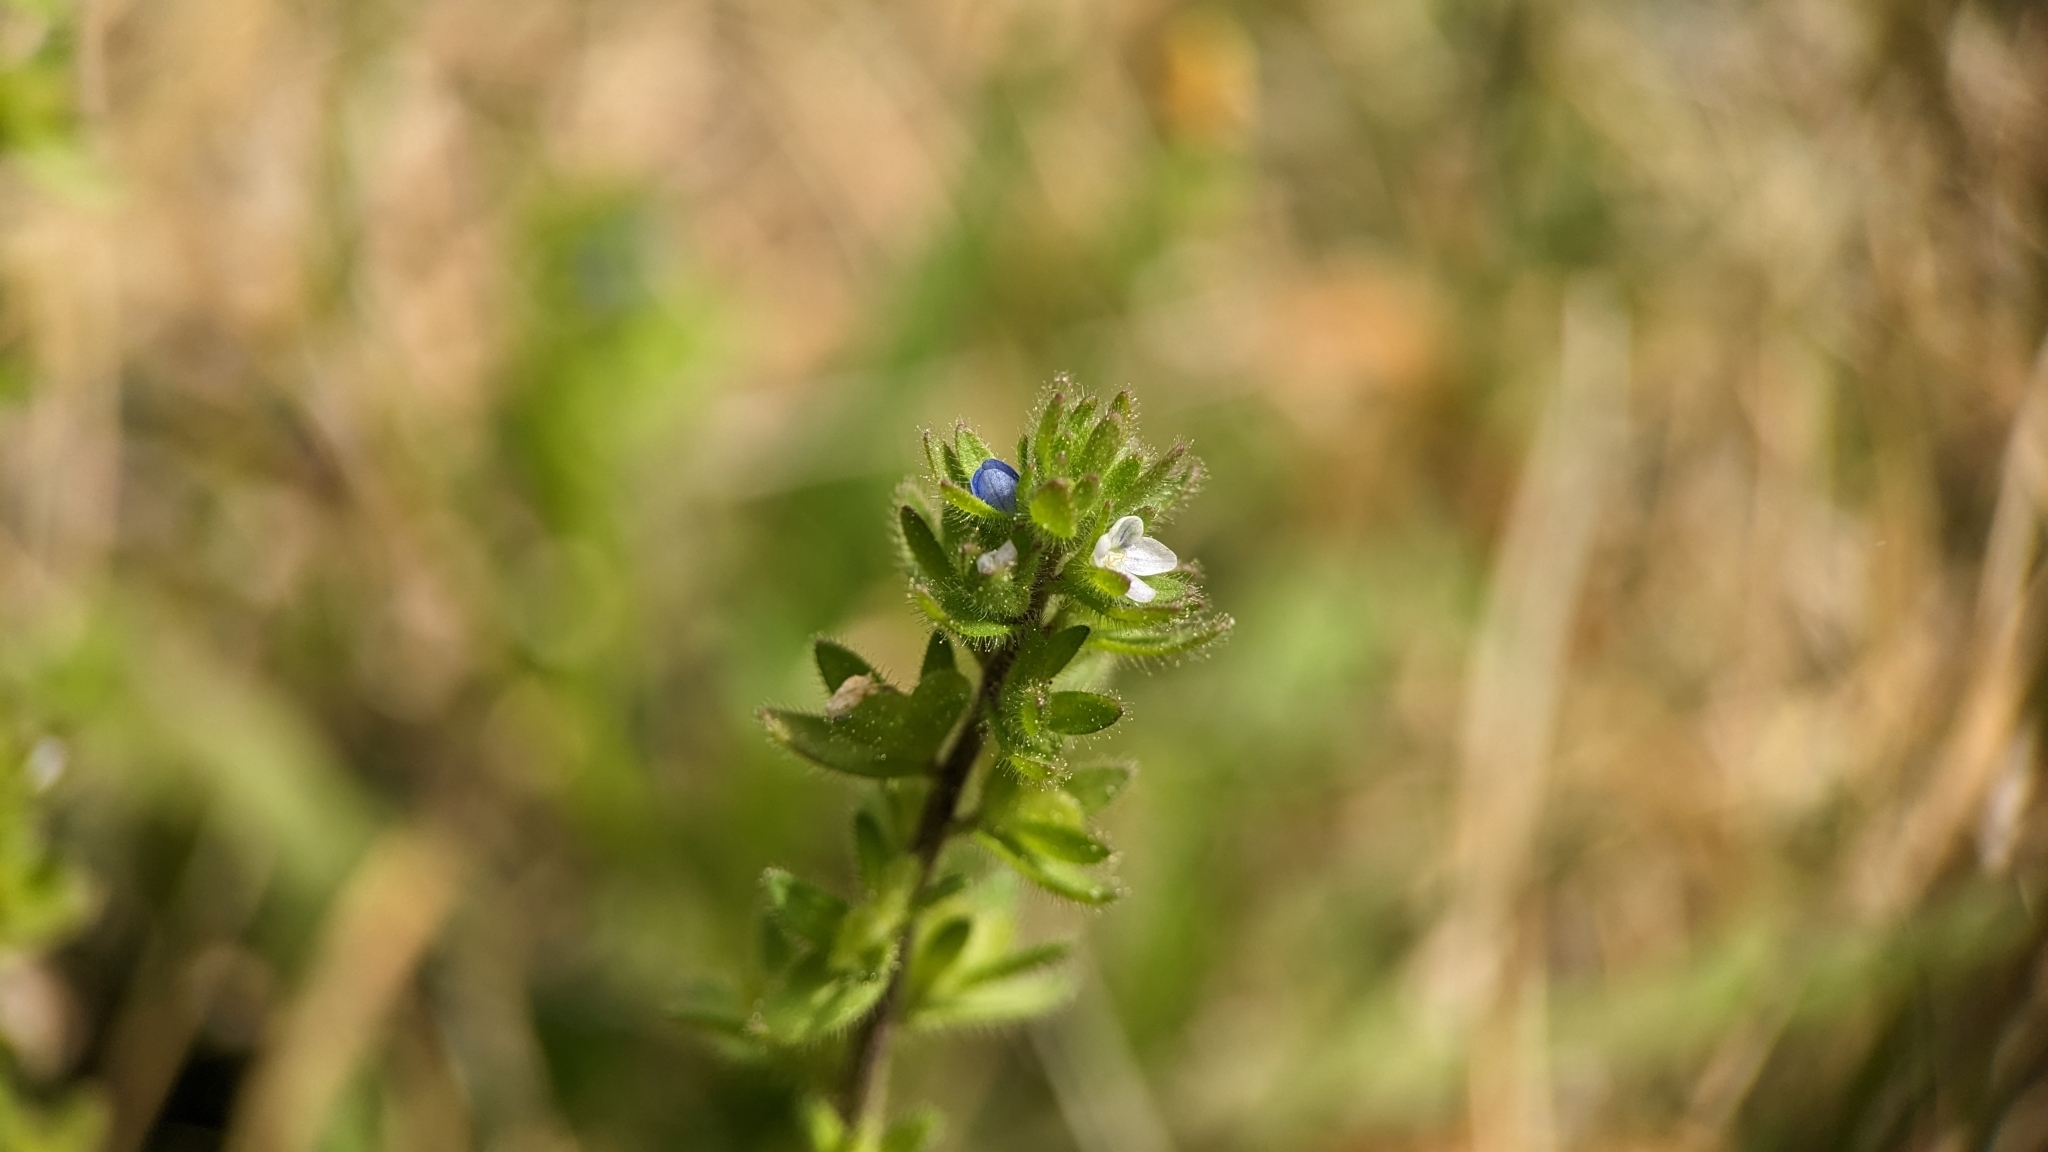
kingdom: Plantae
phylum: Tracheophyta
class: Magnoliopsida
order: Lamiales
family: Plantaginaceae
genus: Veronica
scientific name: Veronica arvensis
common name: Corn speedwell
